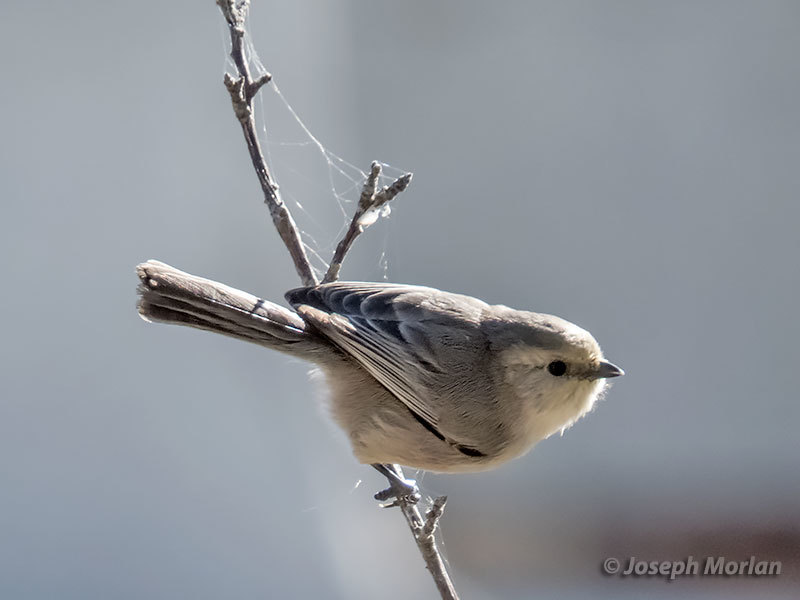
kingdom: Animalia
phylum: Chordata
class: Aves
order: Passeriformes
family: Aegithalidae
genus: Psaltriparus
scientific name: Psaltriparus minimus
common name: American bushtit
